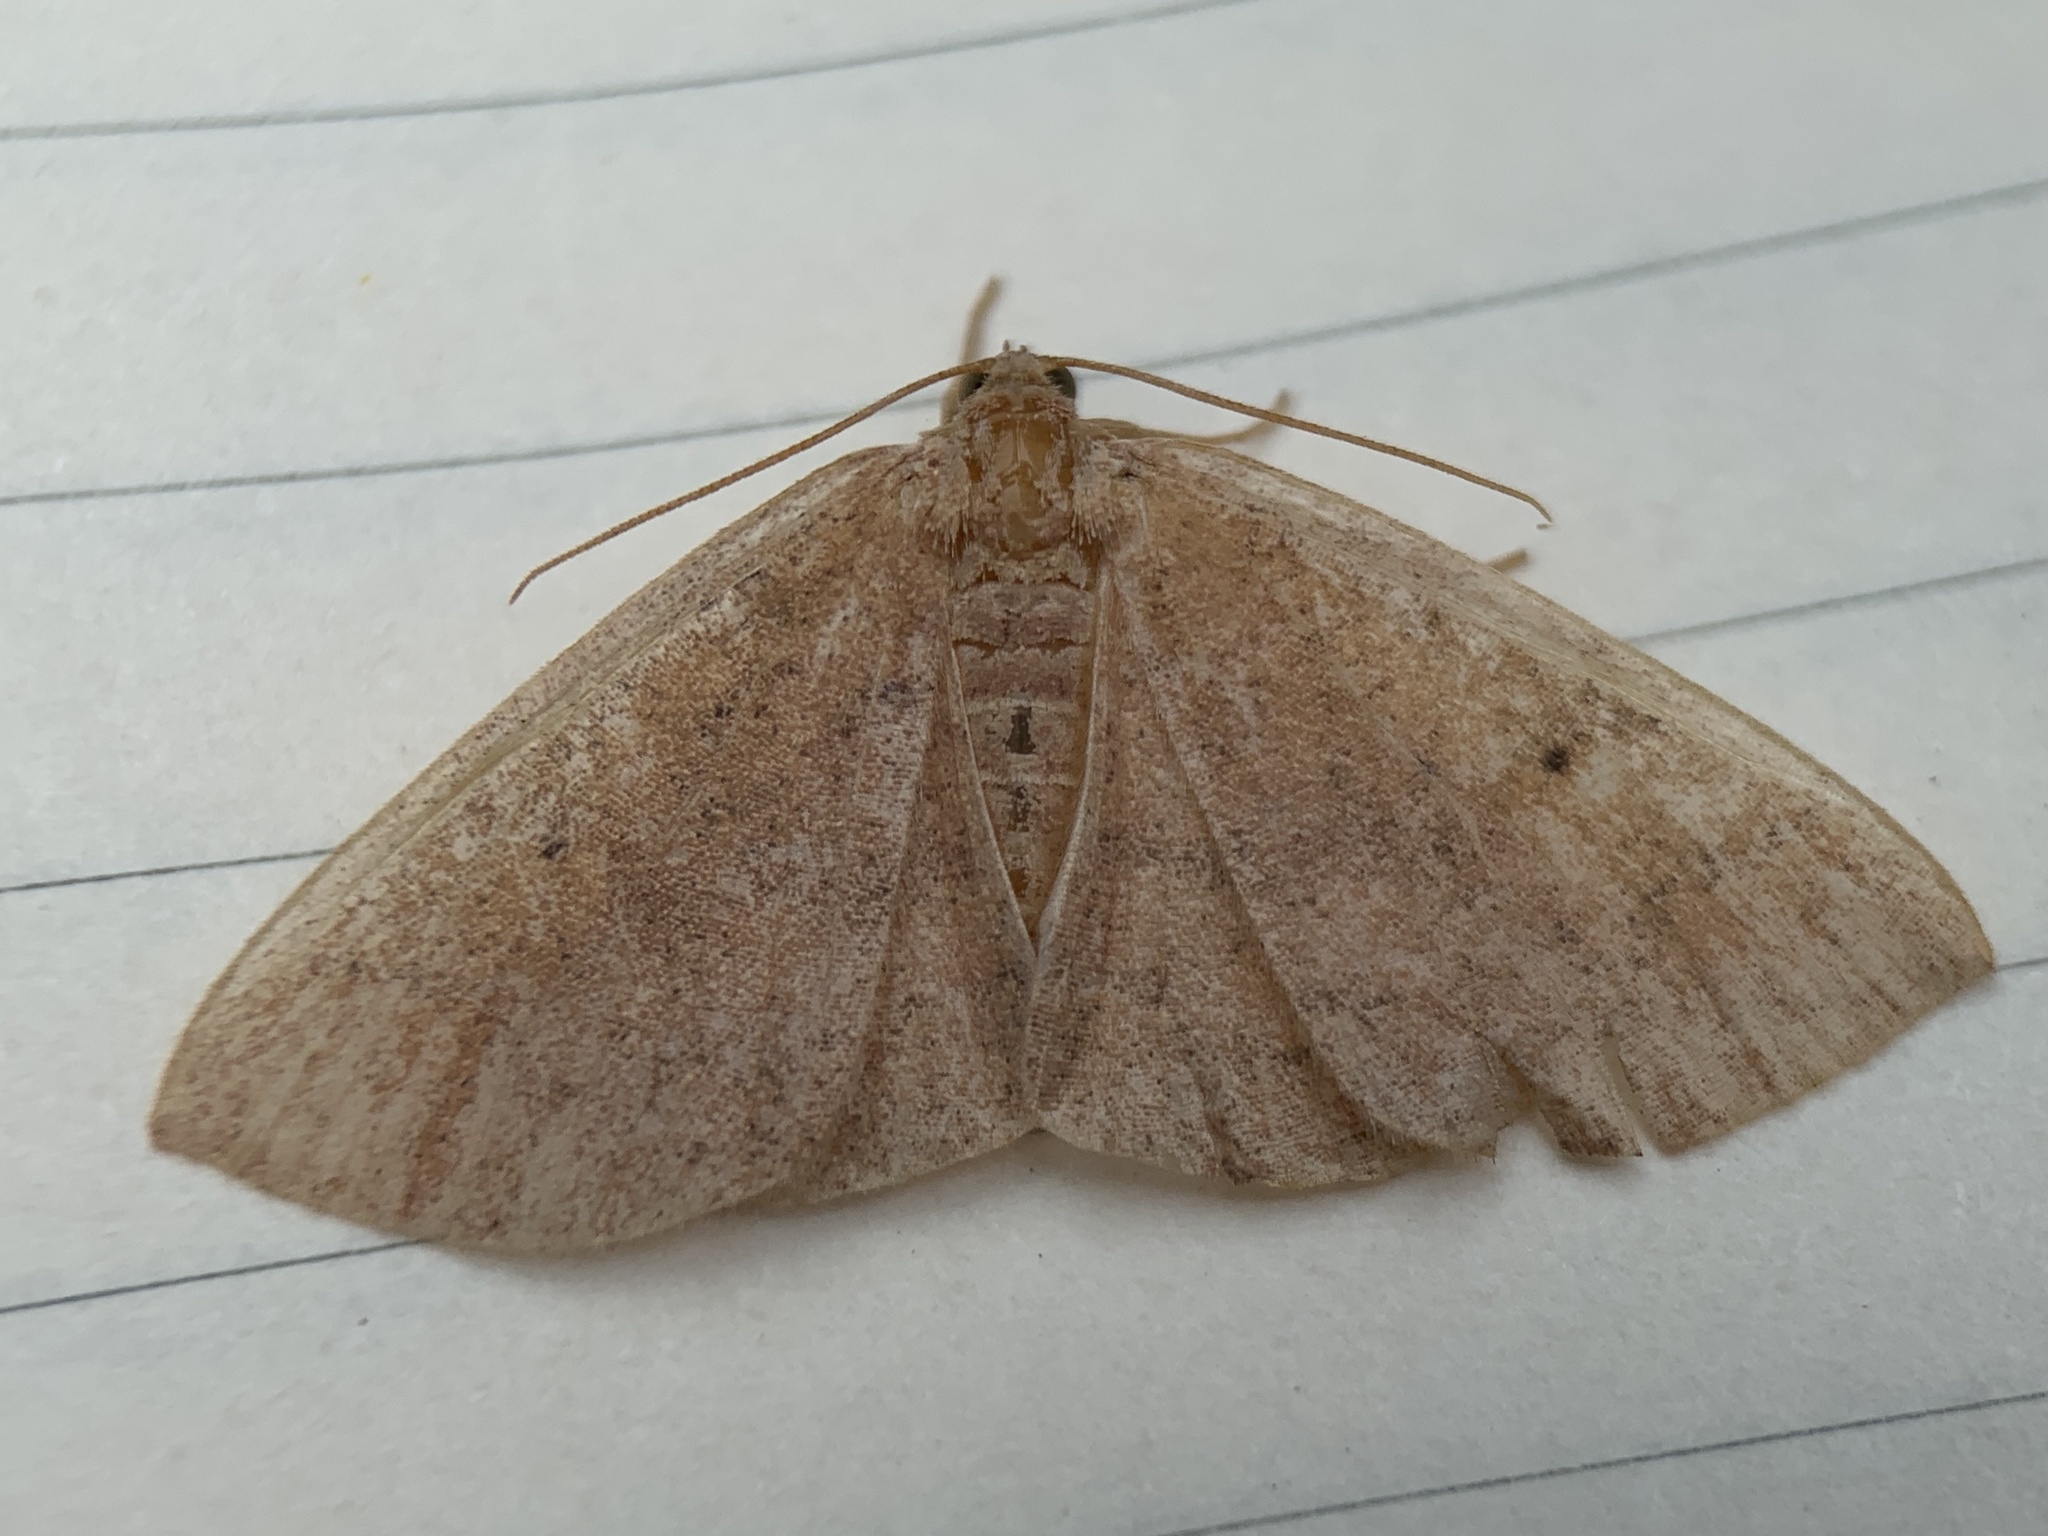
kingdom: Animalia
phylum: Arthropoda
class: Insecta
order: Lepidoptera
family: Geometridae
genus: Ilexia
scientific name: Ilexia intractata
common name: Black-dotted ruddy moth
